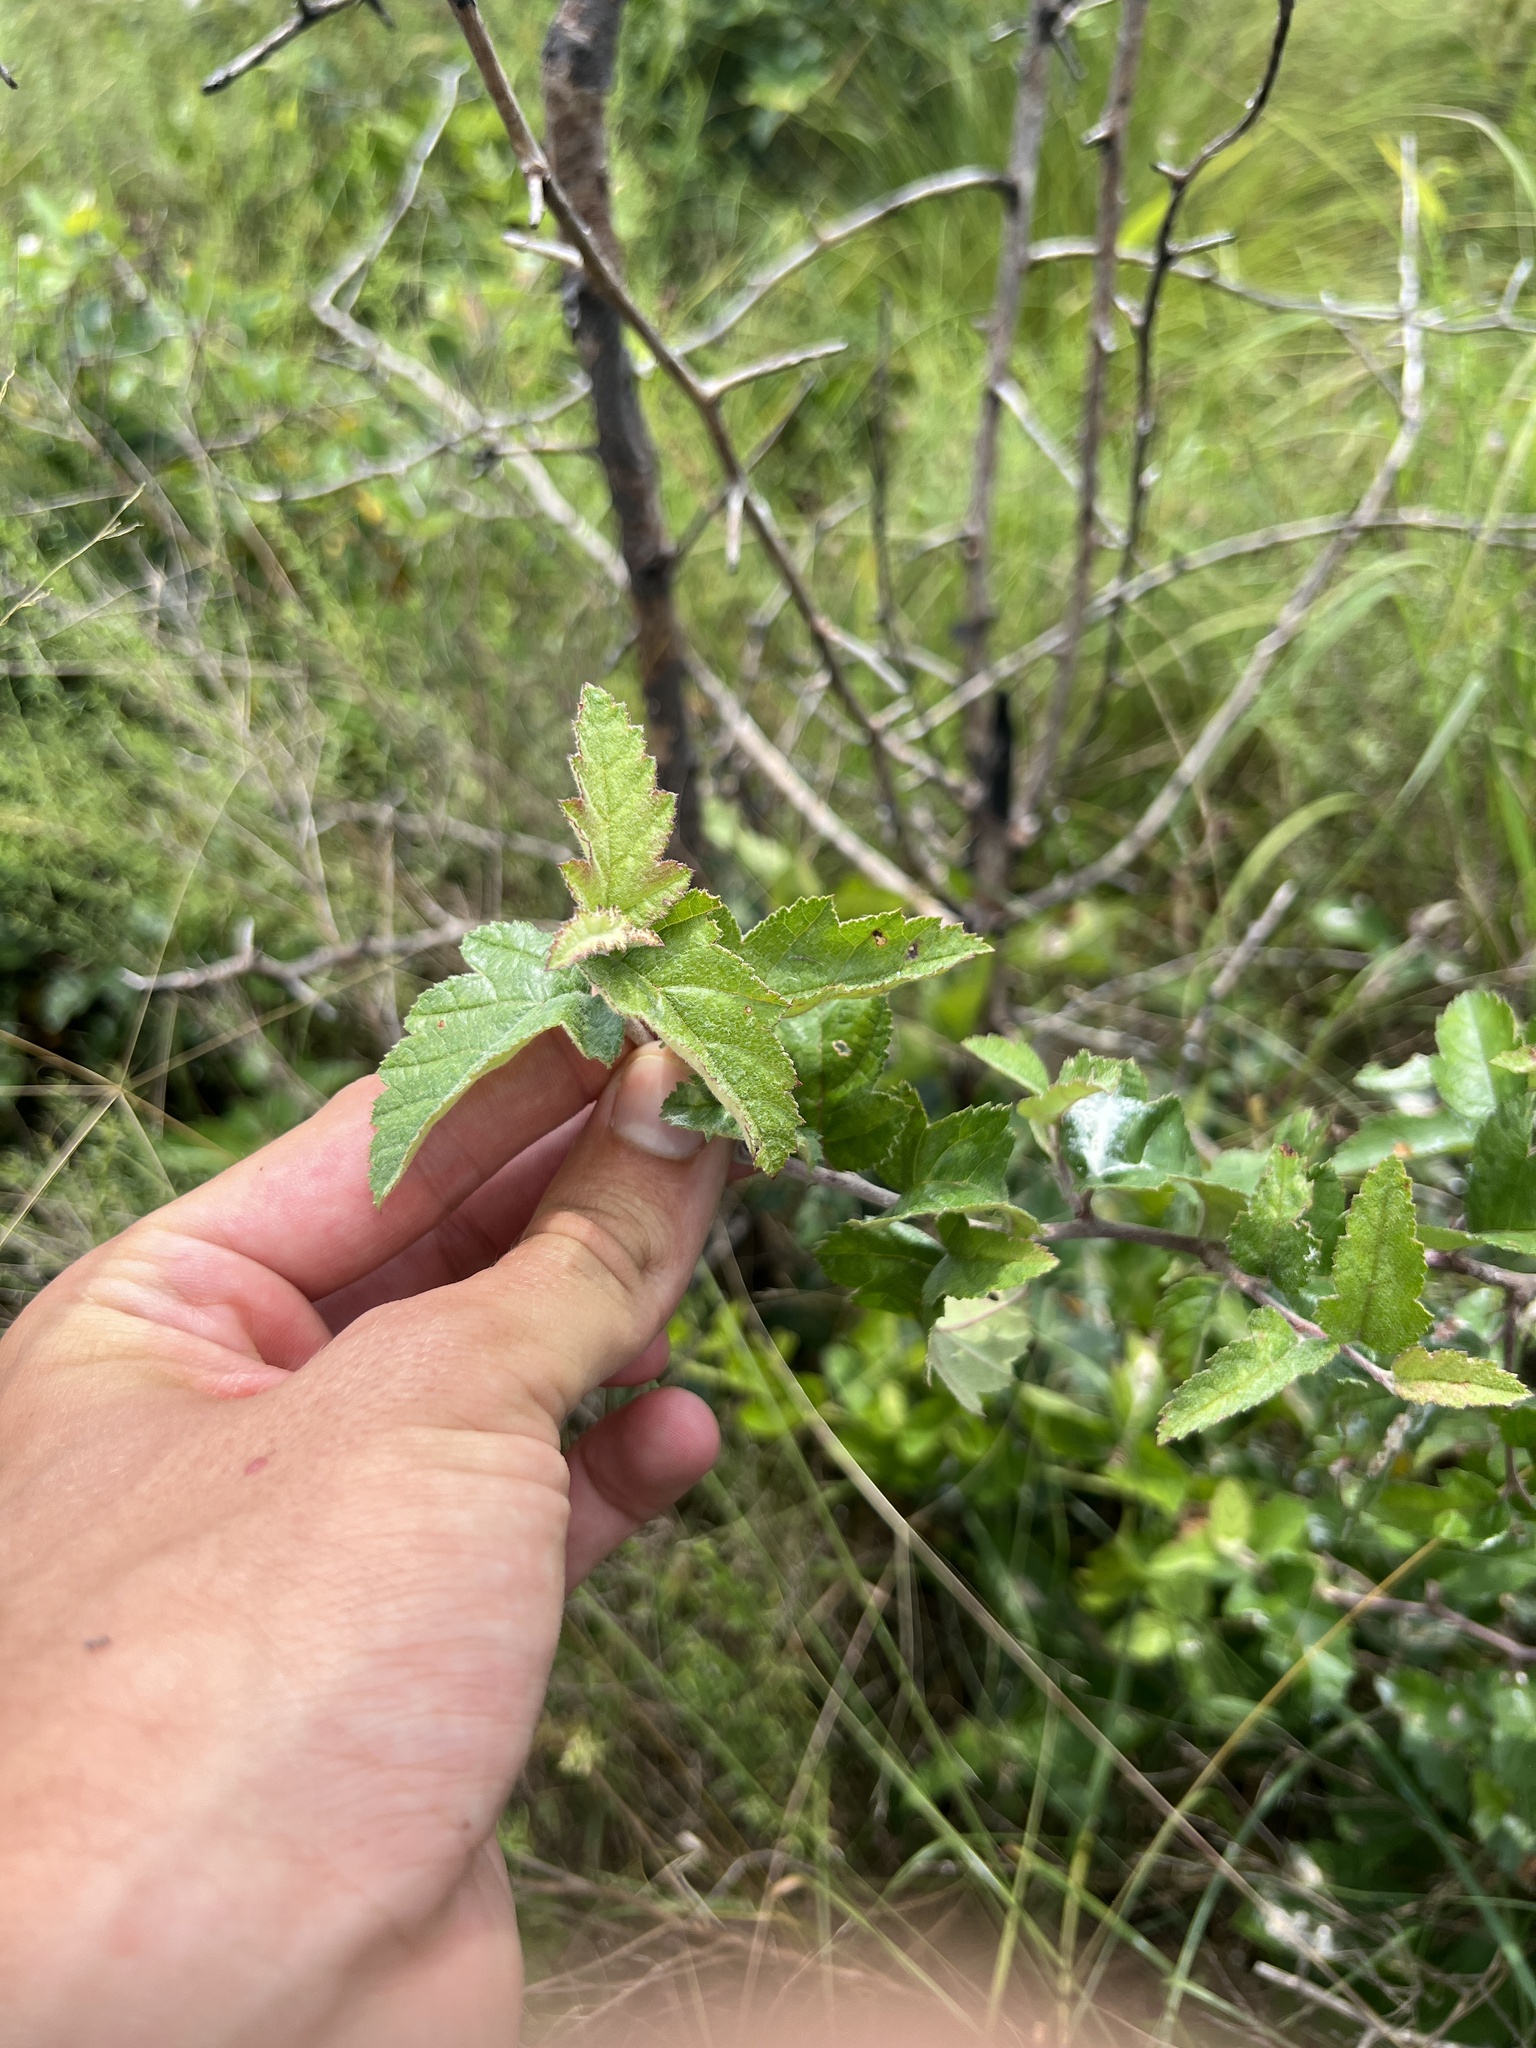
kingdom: Plantae
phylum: Tracheophyta
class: Magnoliopsida
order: Rosales
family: Rosaceae
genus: Malus
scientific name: Malus ioensis
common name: Iowa crab apple
